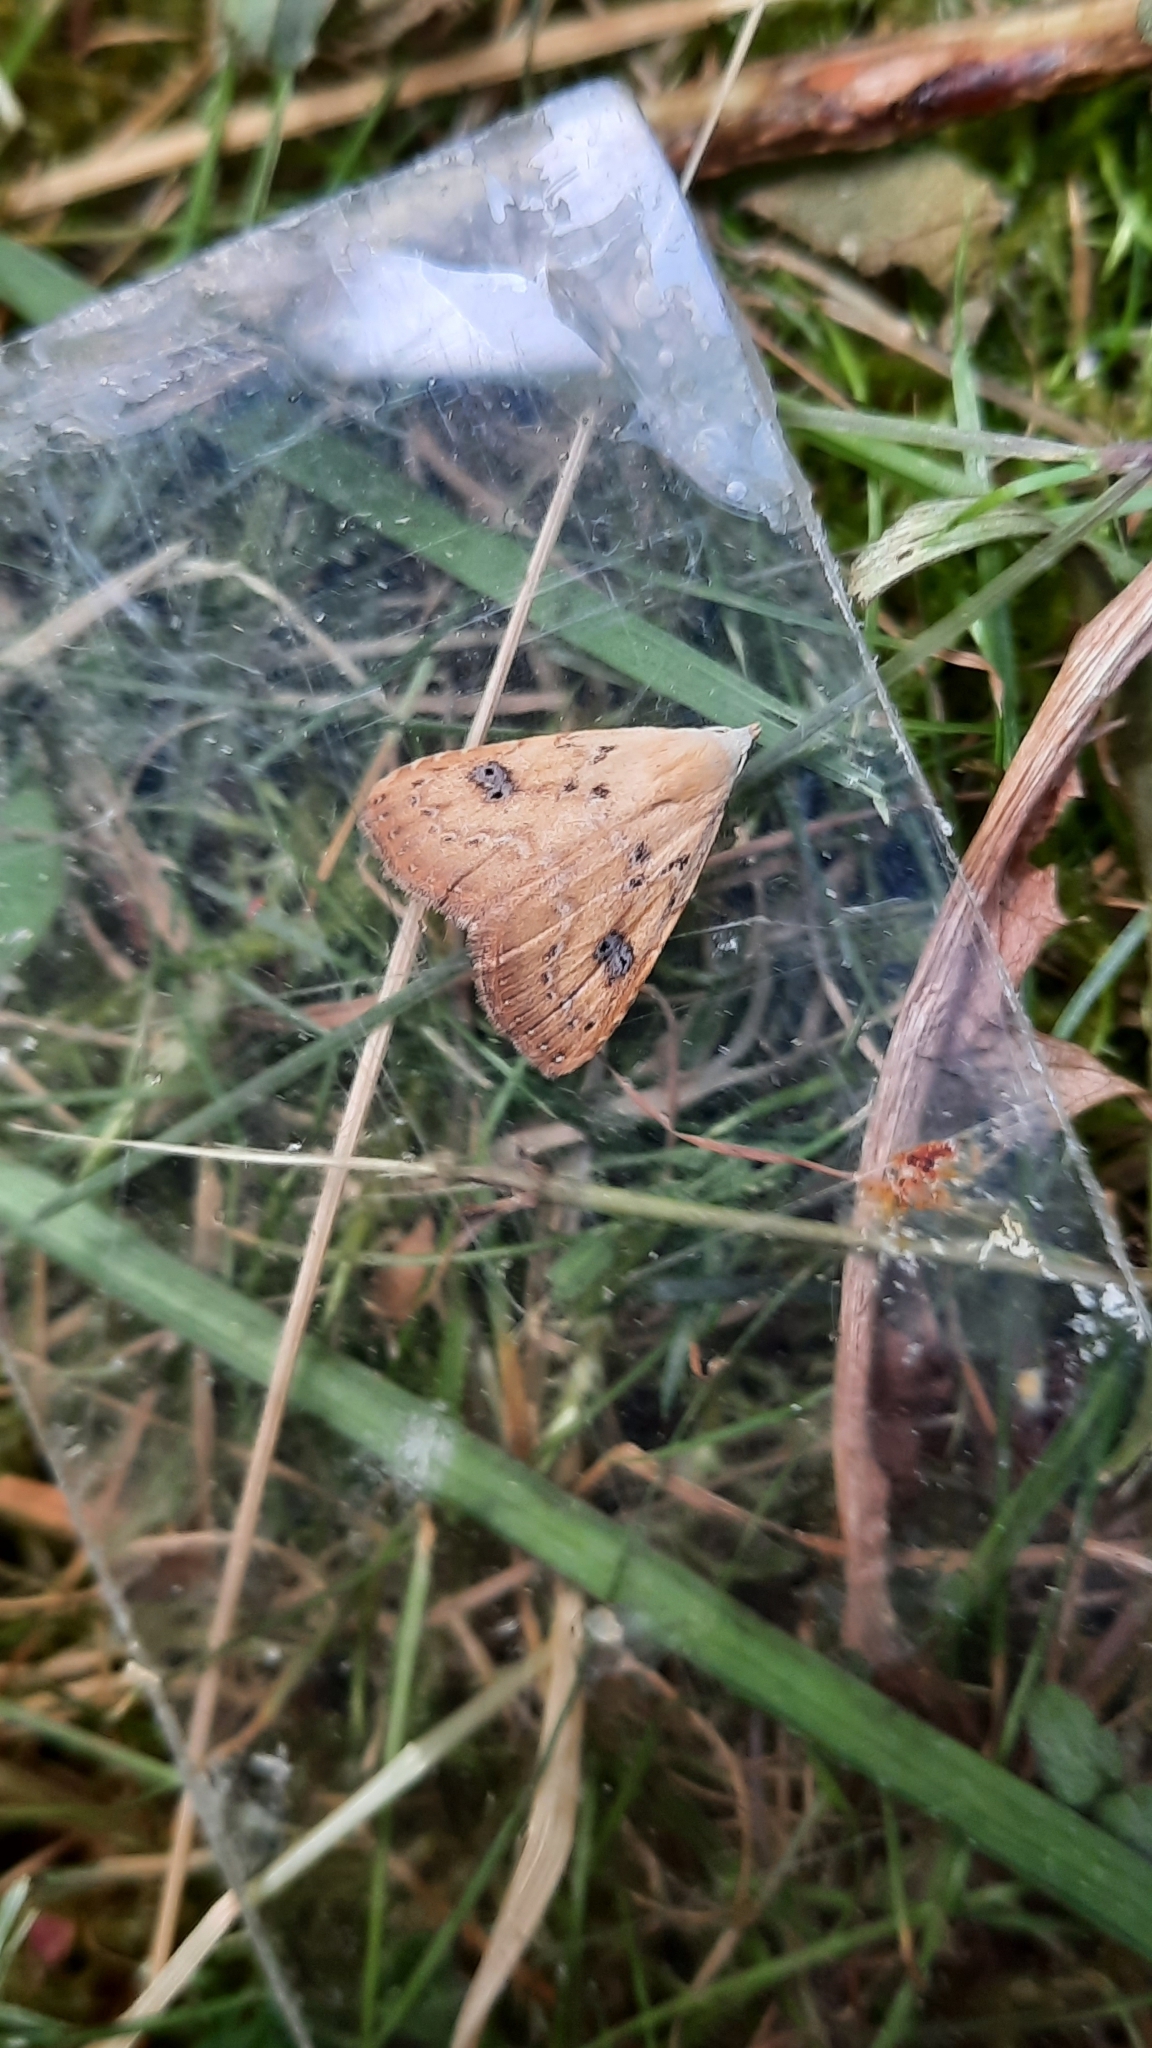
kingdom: Animalia
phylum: Arthropoda
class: Insecta
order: Lepidoptera
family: Erebidae
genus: Rivula
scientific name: Rivula sericealis
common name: Straw dot
